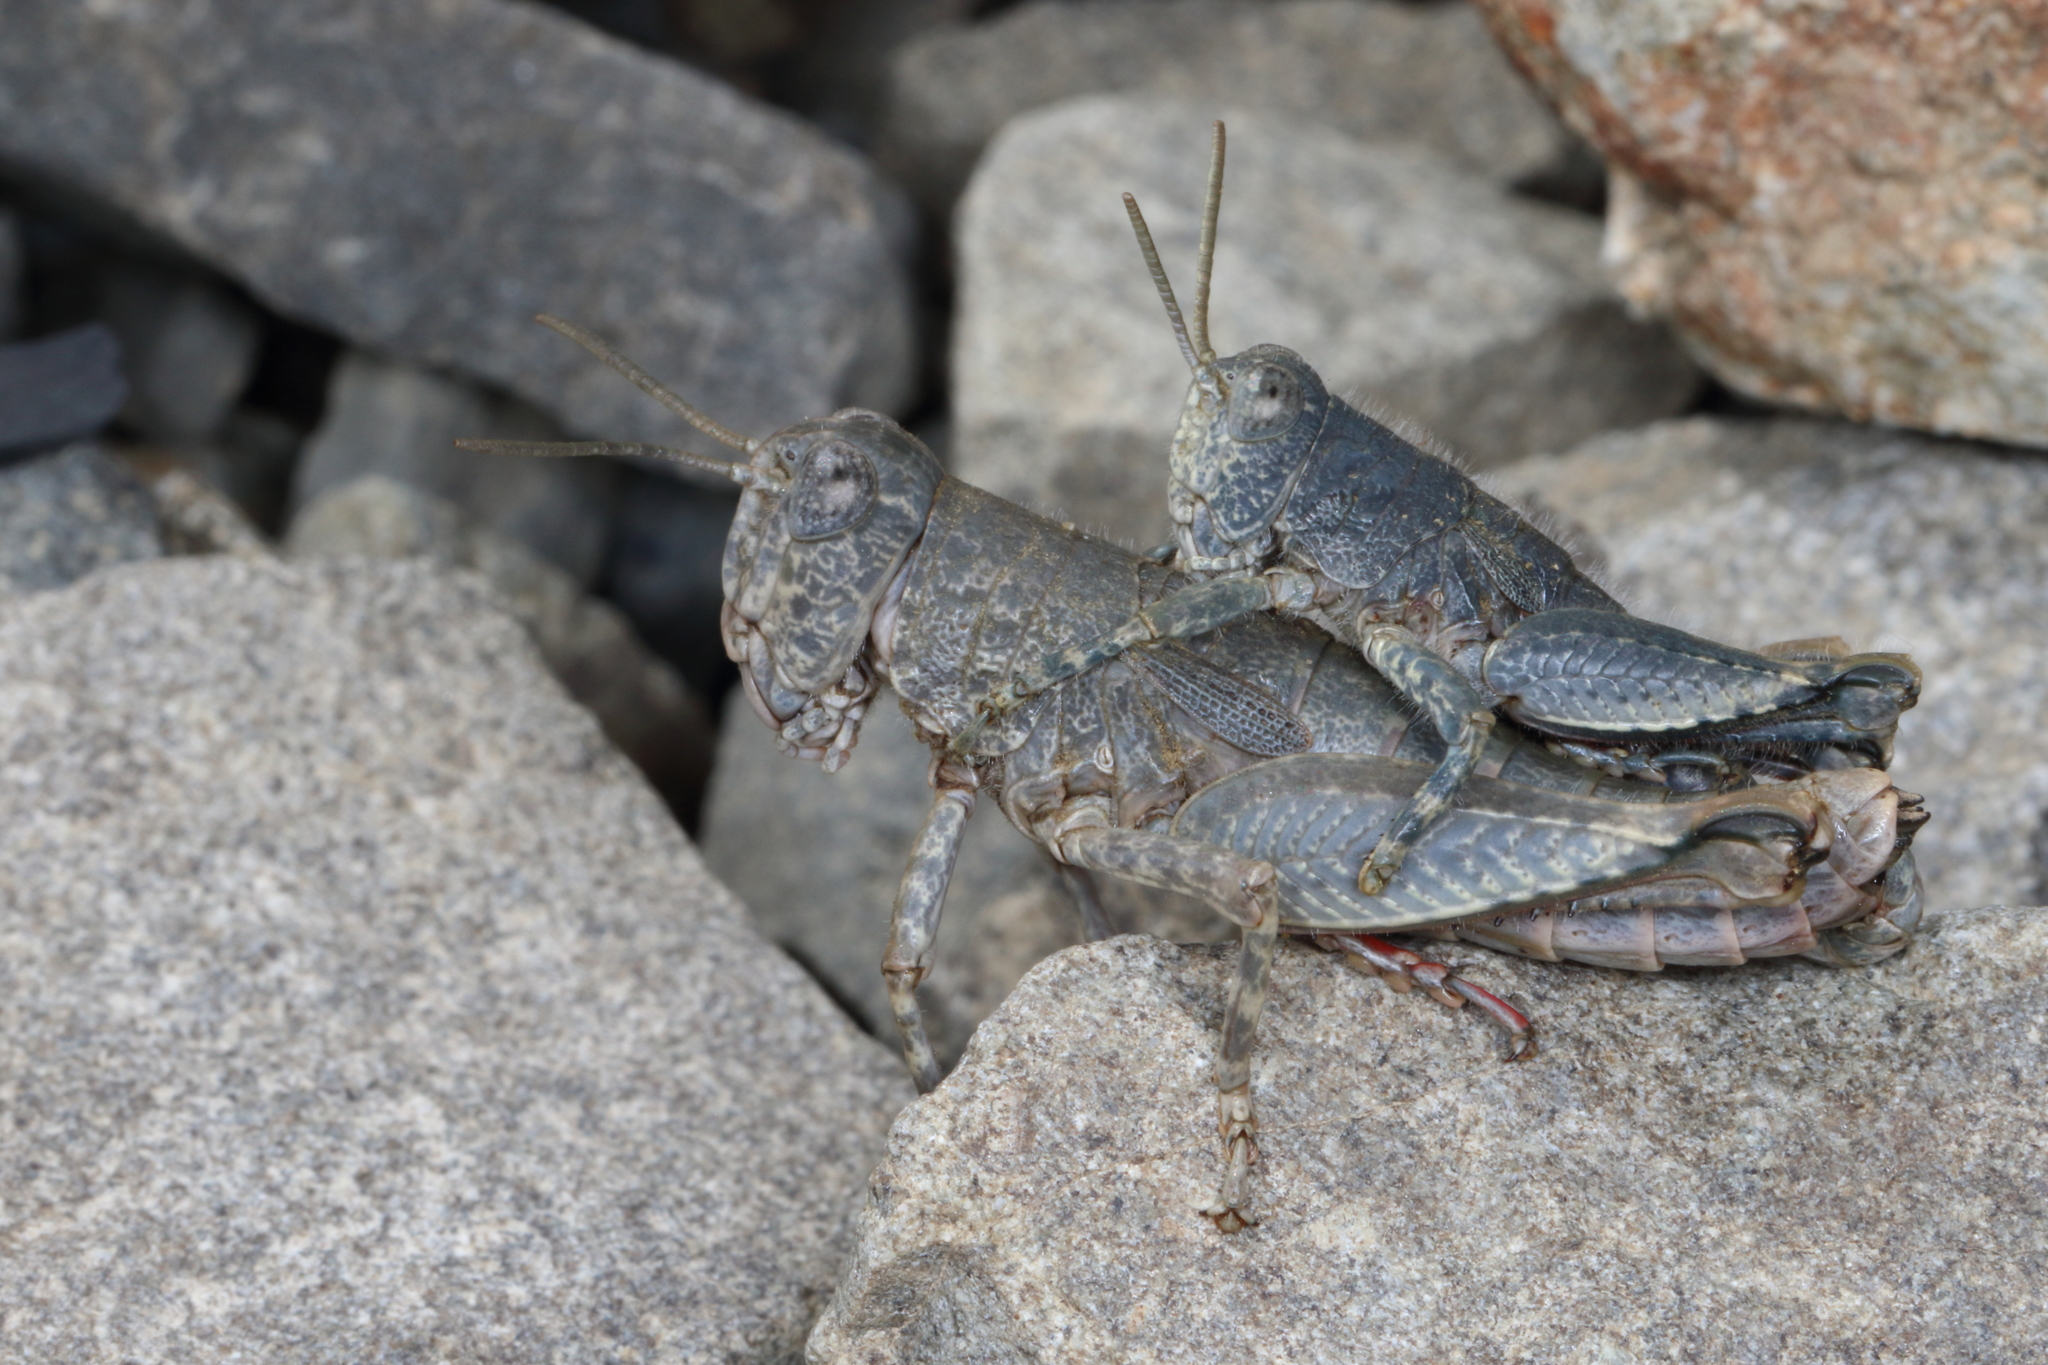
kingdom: Animalia
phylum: Arthropoda
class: Insecta
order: Orthoptera
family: Acrididae
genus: Sigaus
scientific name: Sigaus
